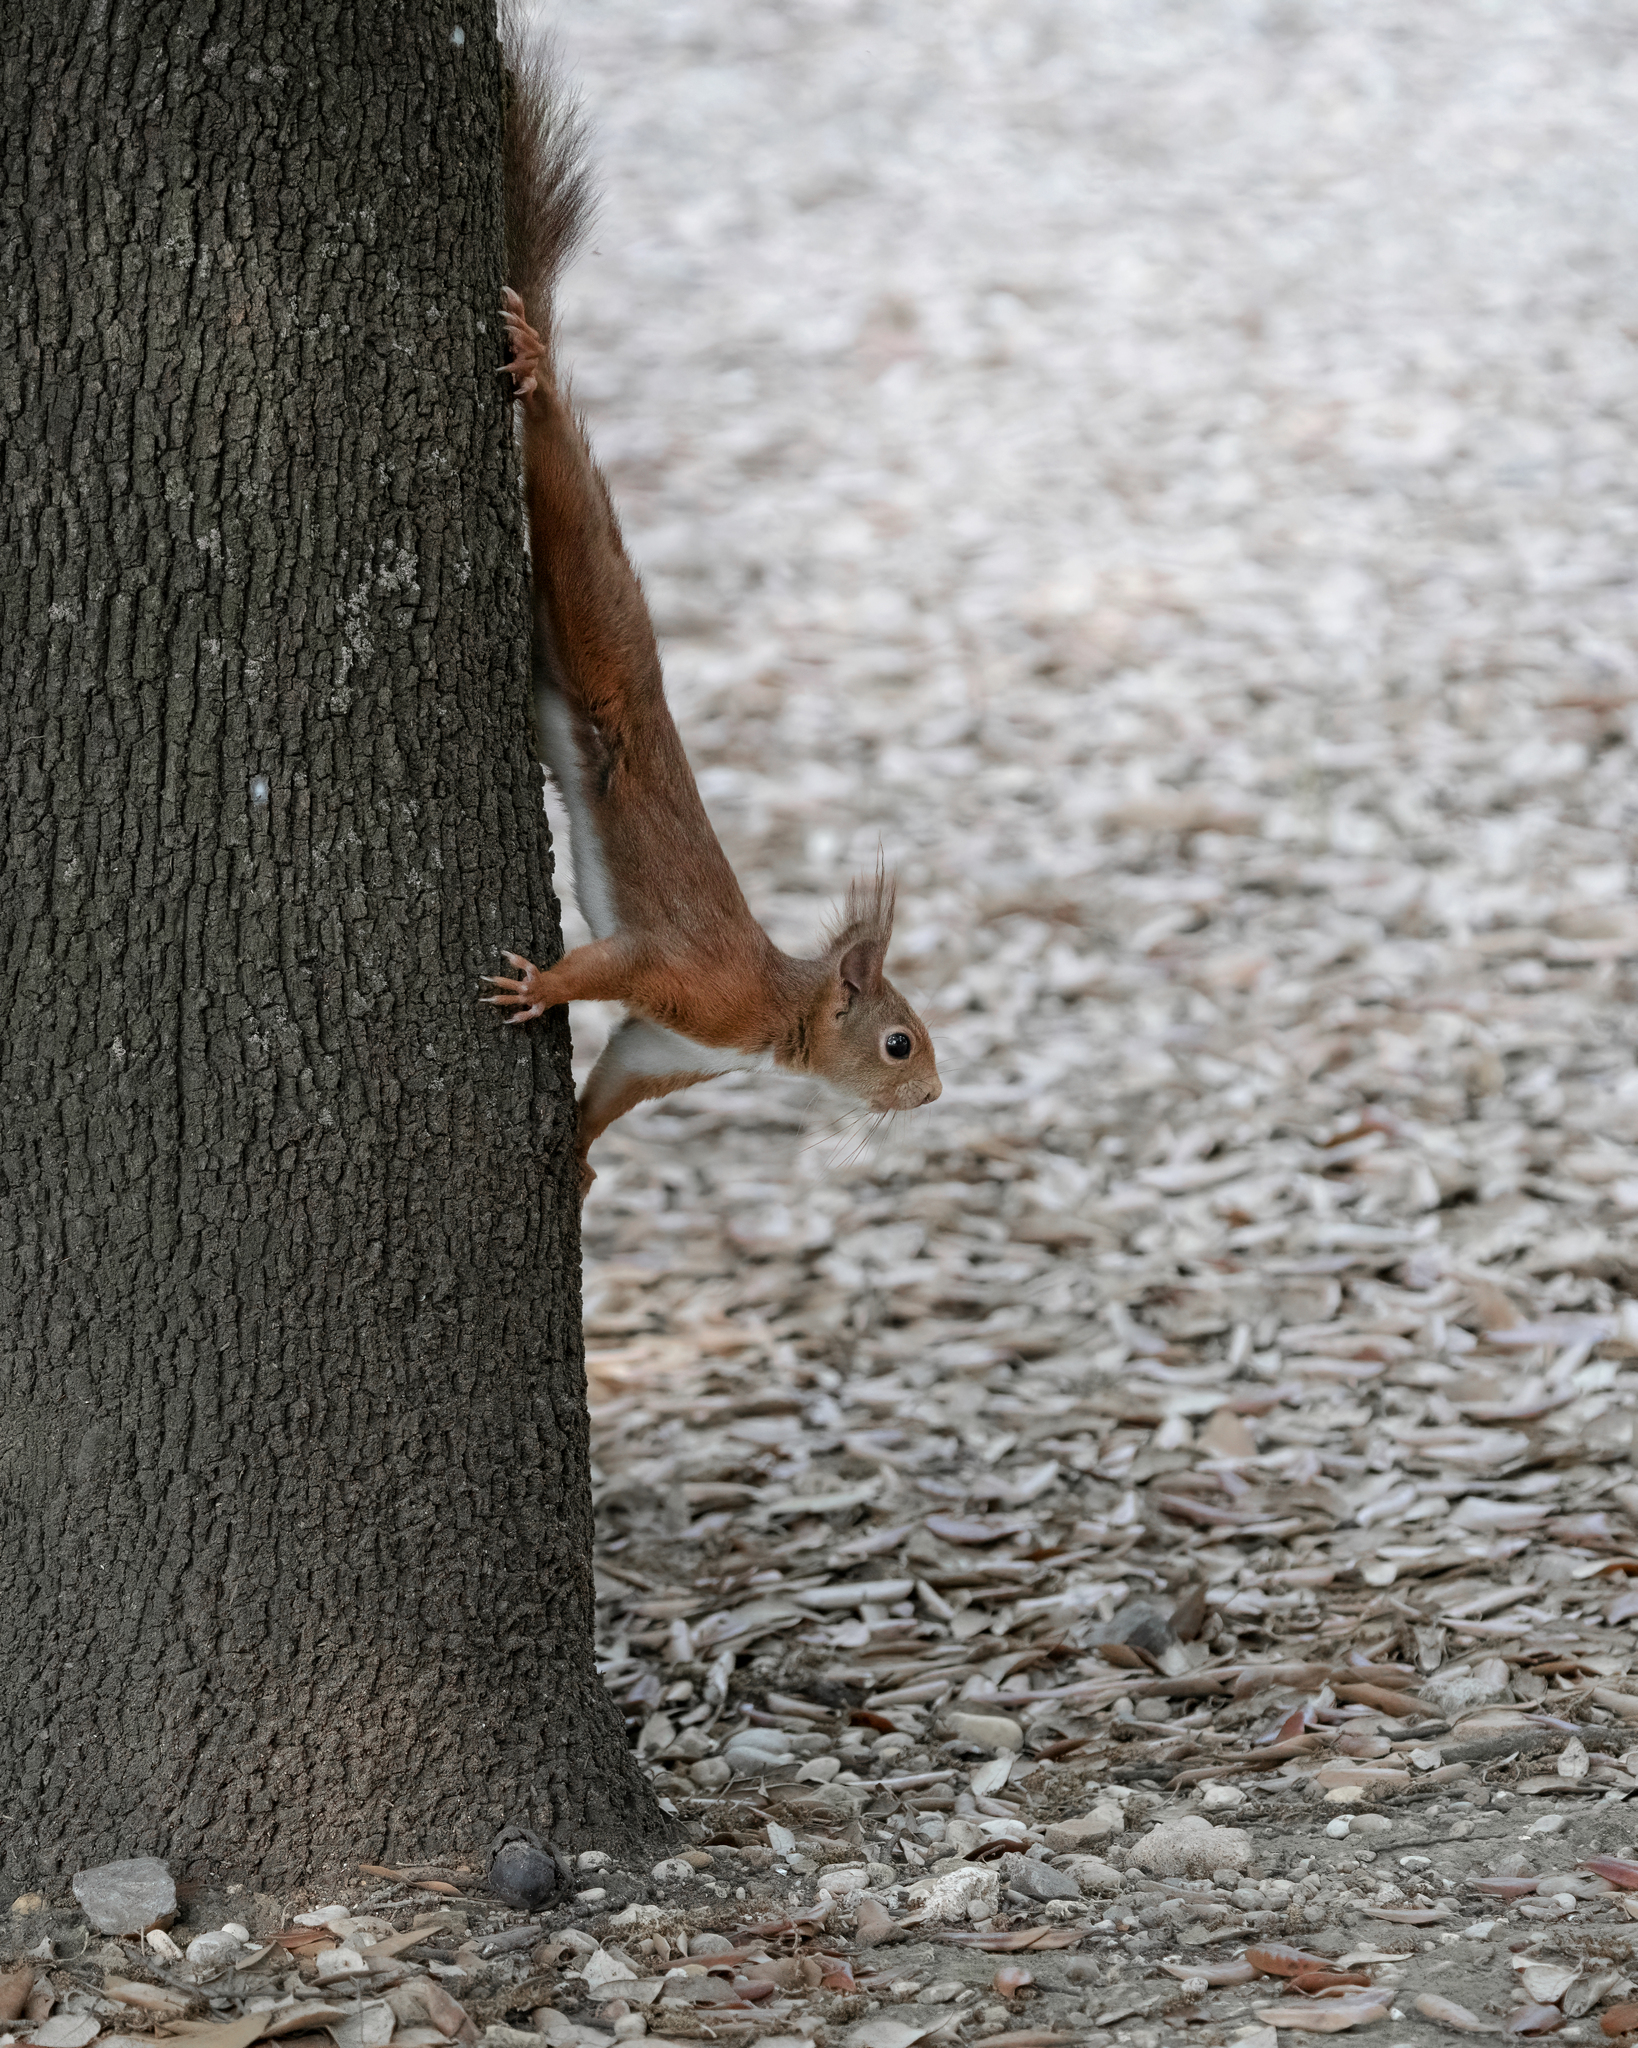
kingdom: Animalia
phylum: Chordata
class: Mammalia
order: Rodentia
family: Sciuridae
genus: Sciurus
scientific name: Sciurus vulgaris
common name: Eurasian red squirrel
